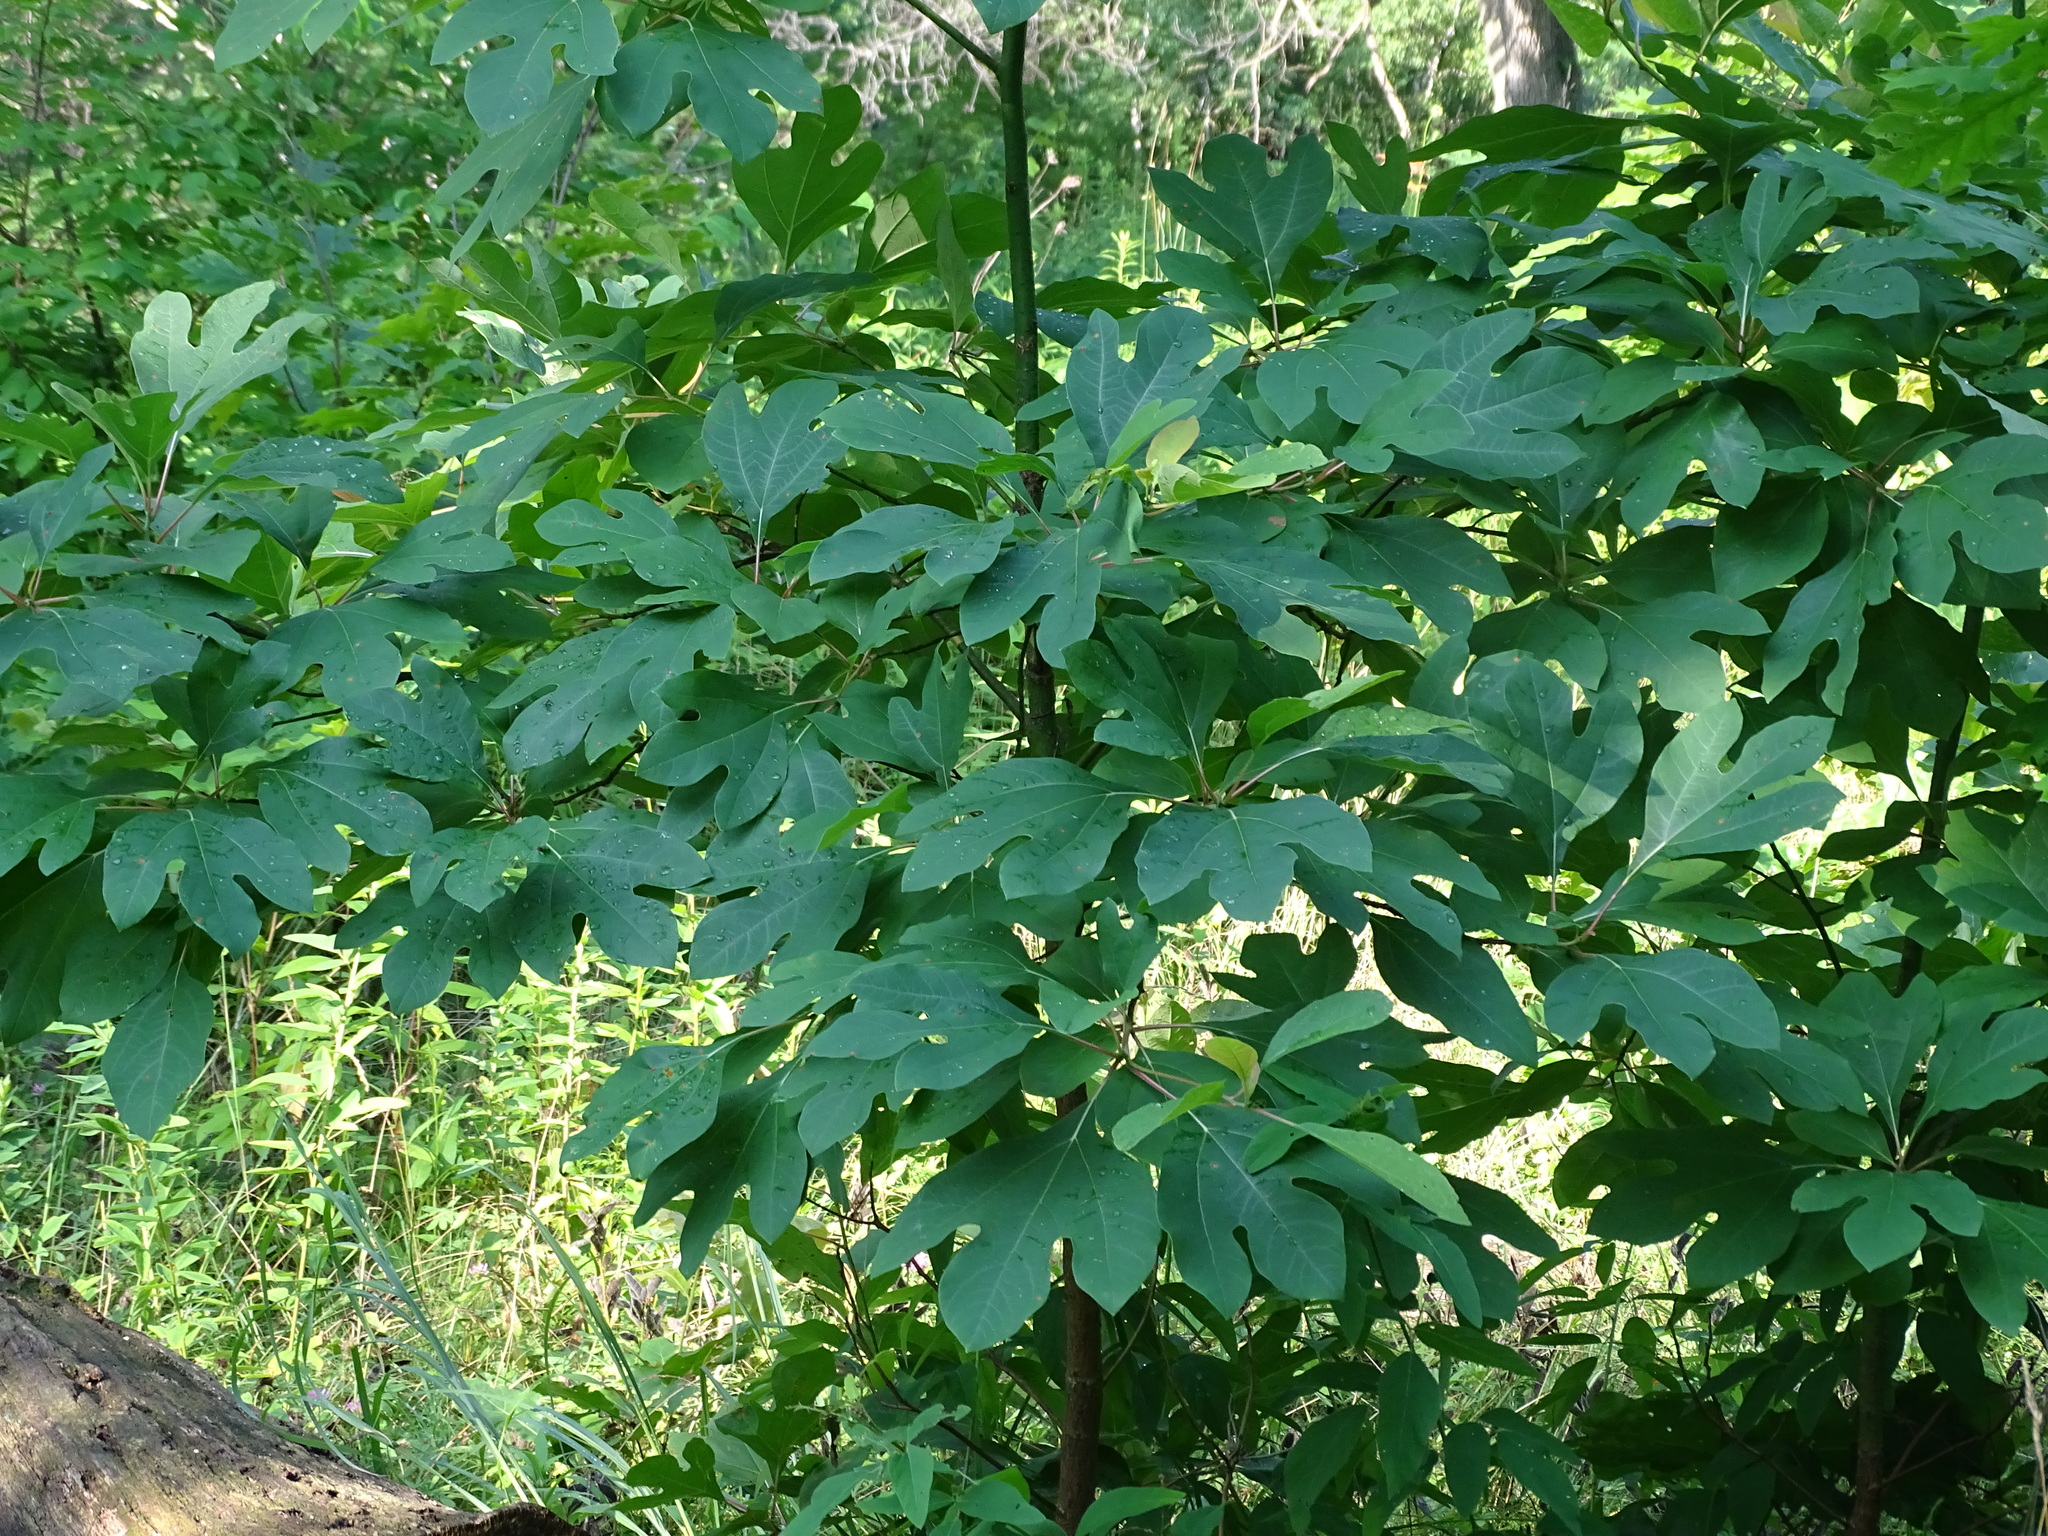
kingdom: Plantae
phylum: Tracheophyta
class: Magnoliopsida
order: Laurales
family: Lauraceae
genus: Sassafras
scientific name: Sassafras albidum
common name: Sassafras
